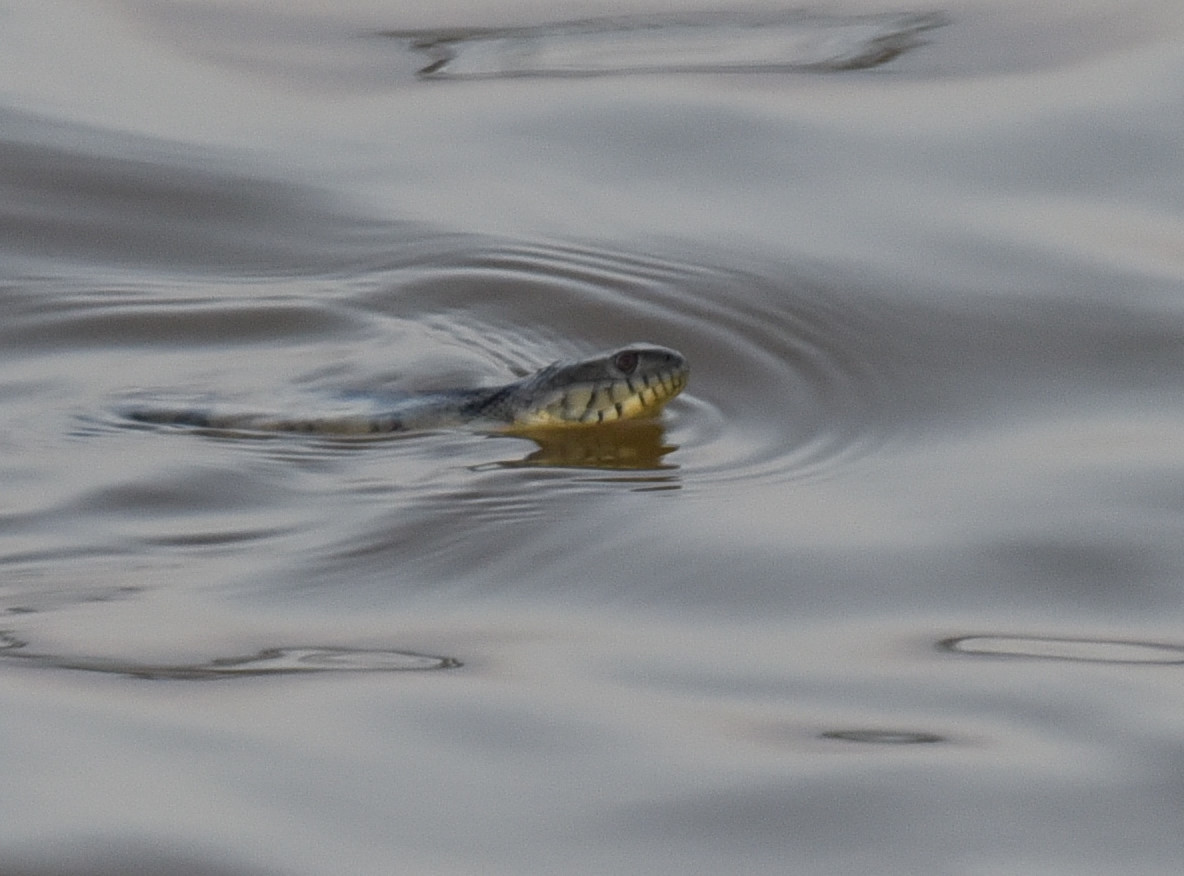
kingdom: Animalia
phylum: Chordata
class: Squamata
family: Colubridae
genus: Nerodia
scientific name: Nerodia rhombifer
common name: Diamondback water snake
